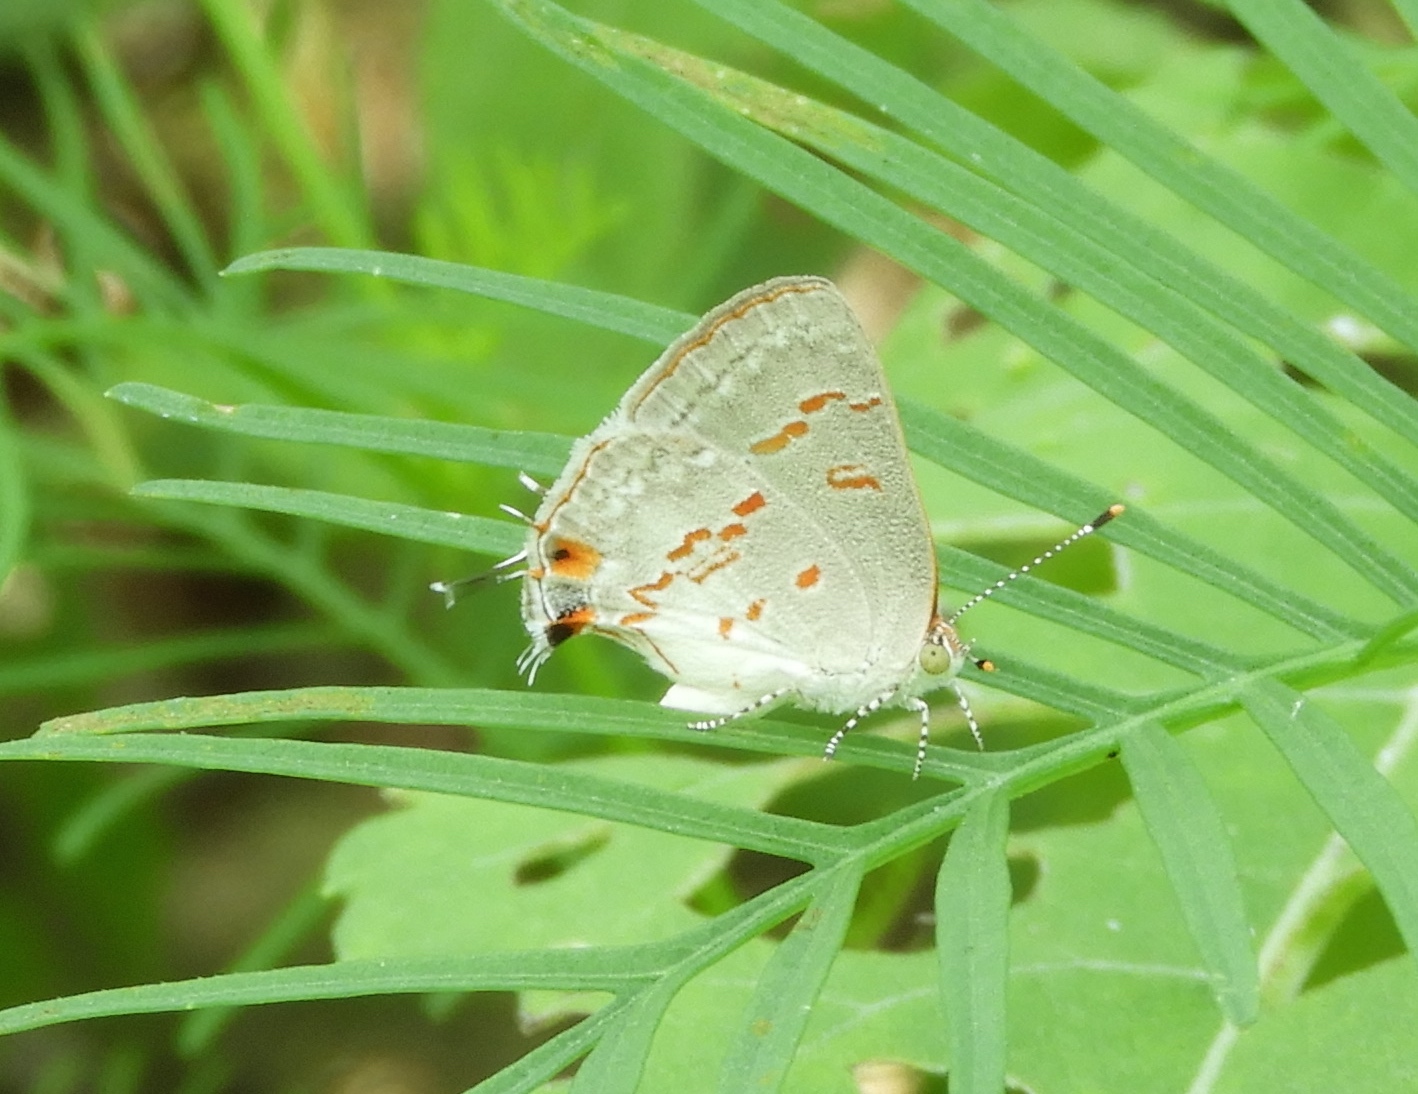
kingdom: Animalia
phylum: Arthropoda
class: Insecta
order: Lepidoptera
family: Lycaenidae
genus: Ministrymon
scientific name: Ministrymon clytie
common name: Clytie ministreak
